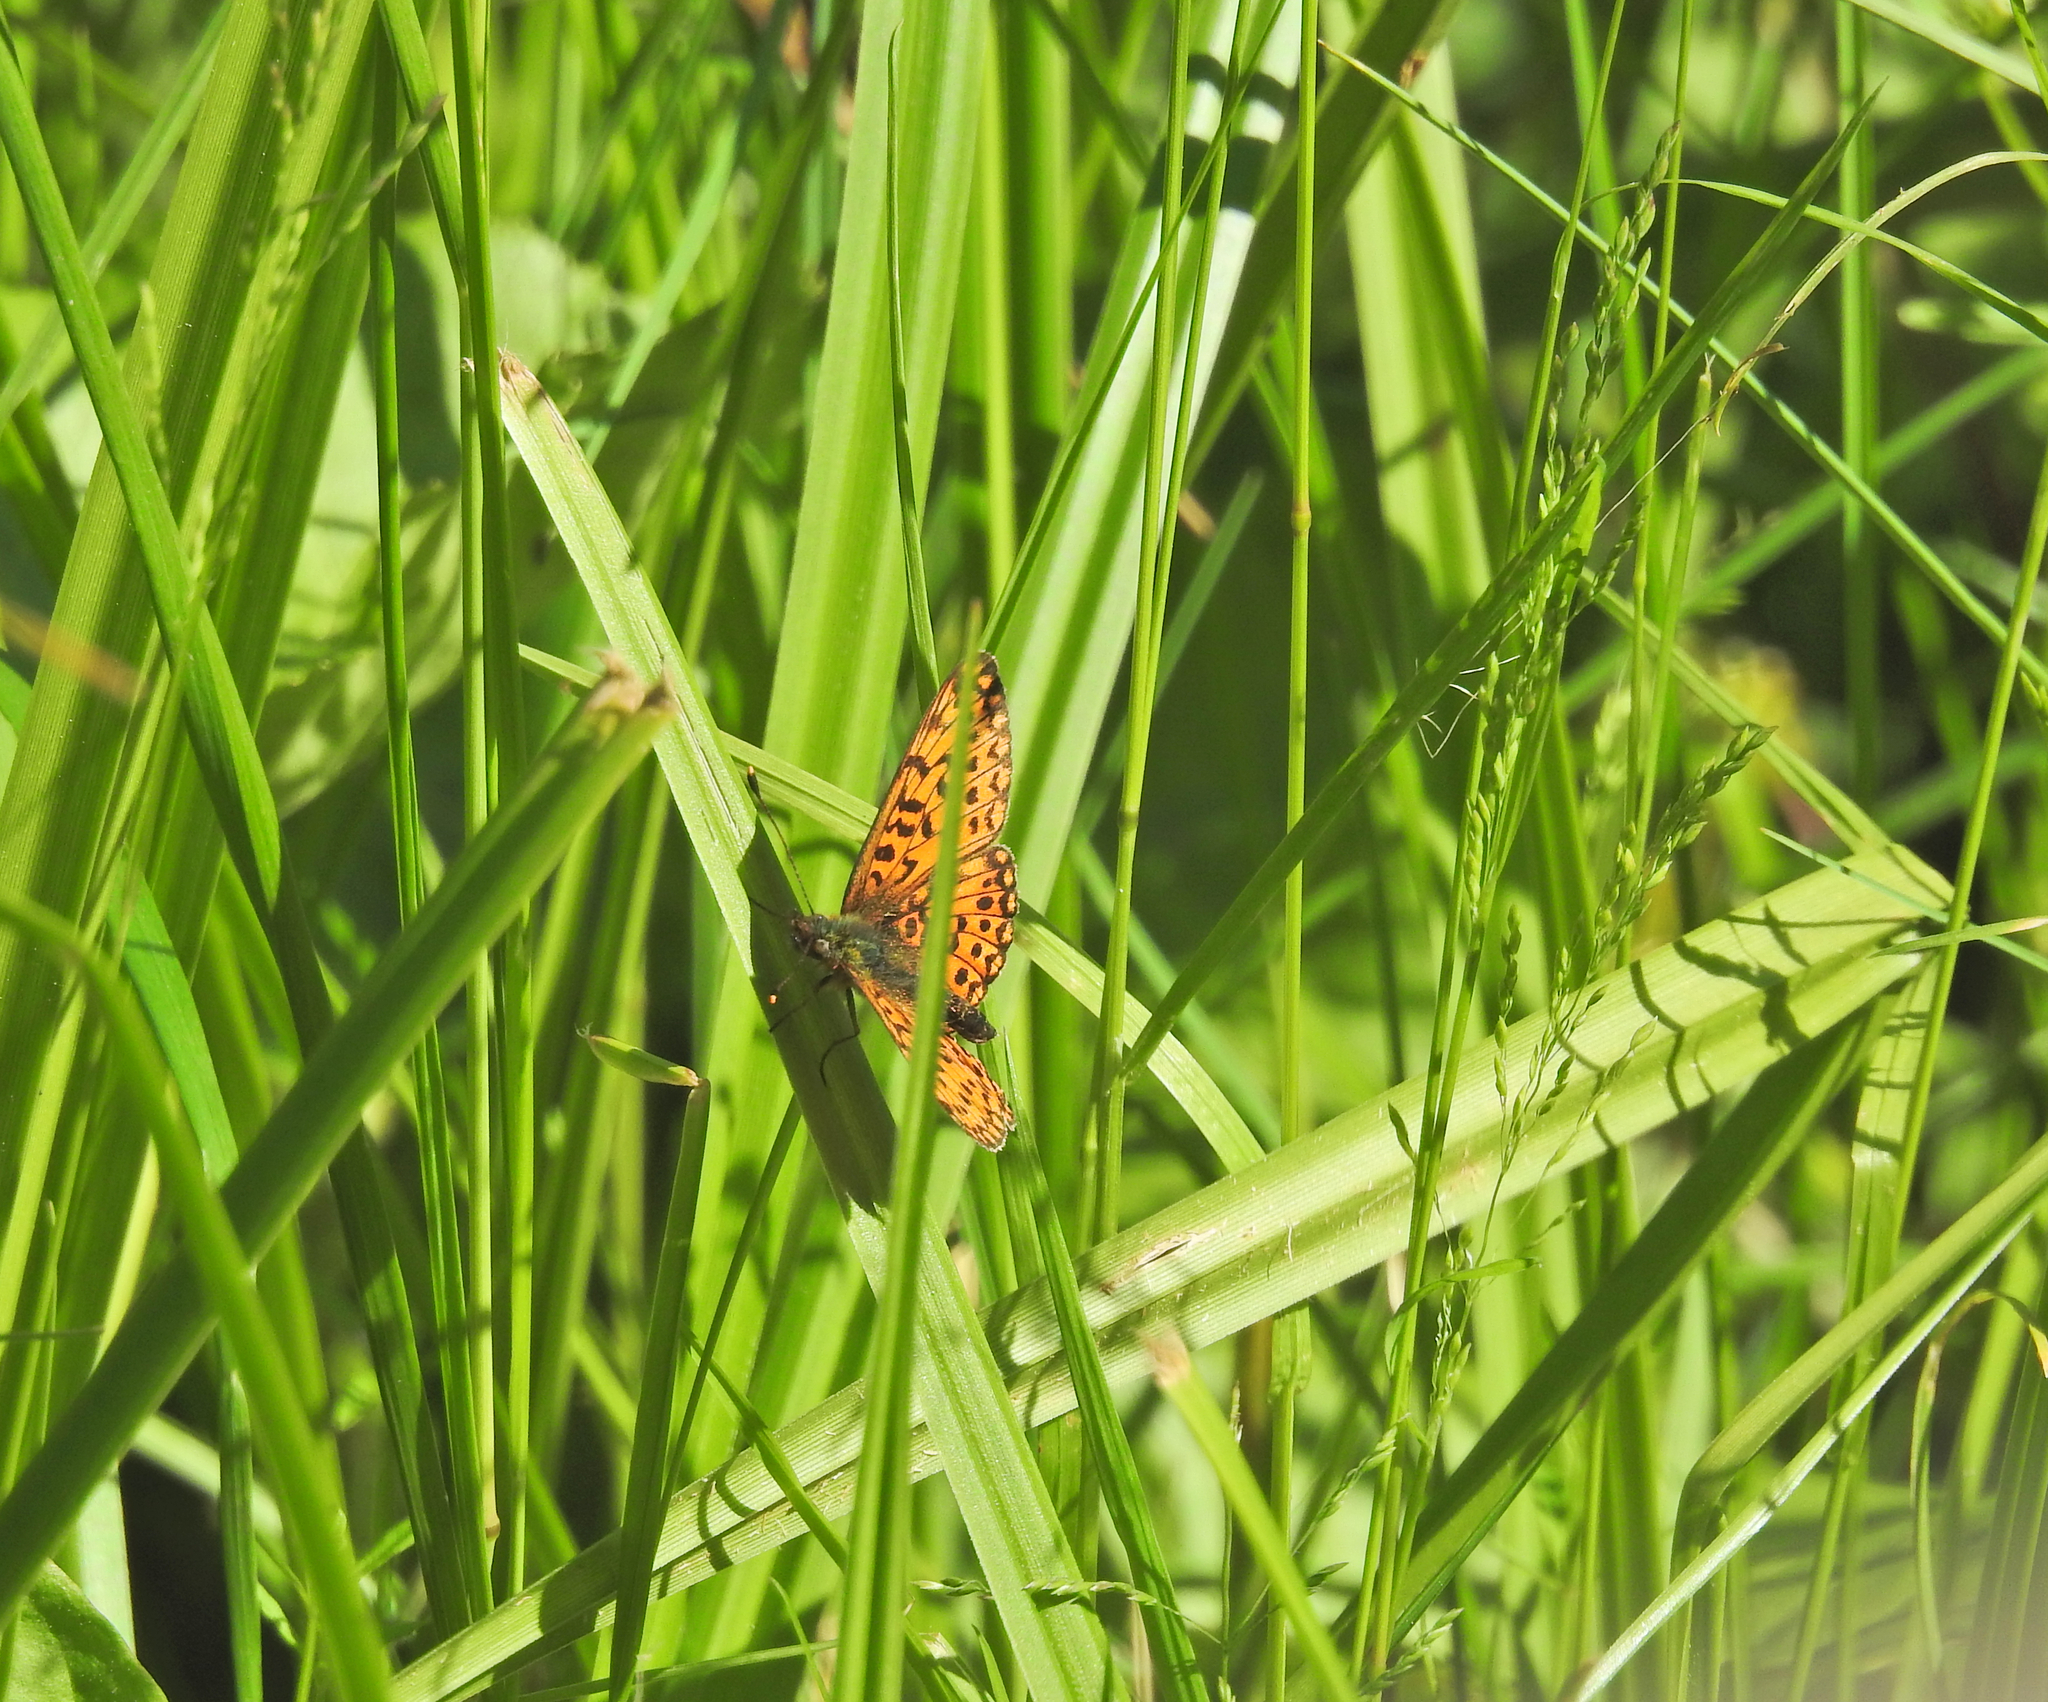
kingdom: Animalia
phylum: Arthropoda
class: Insecta
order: Lepidoptera
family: Nymphalidae
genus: Boloria
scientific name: Boloria selene
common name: Small pearl-bordered fritillary
